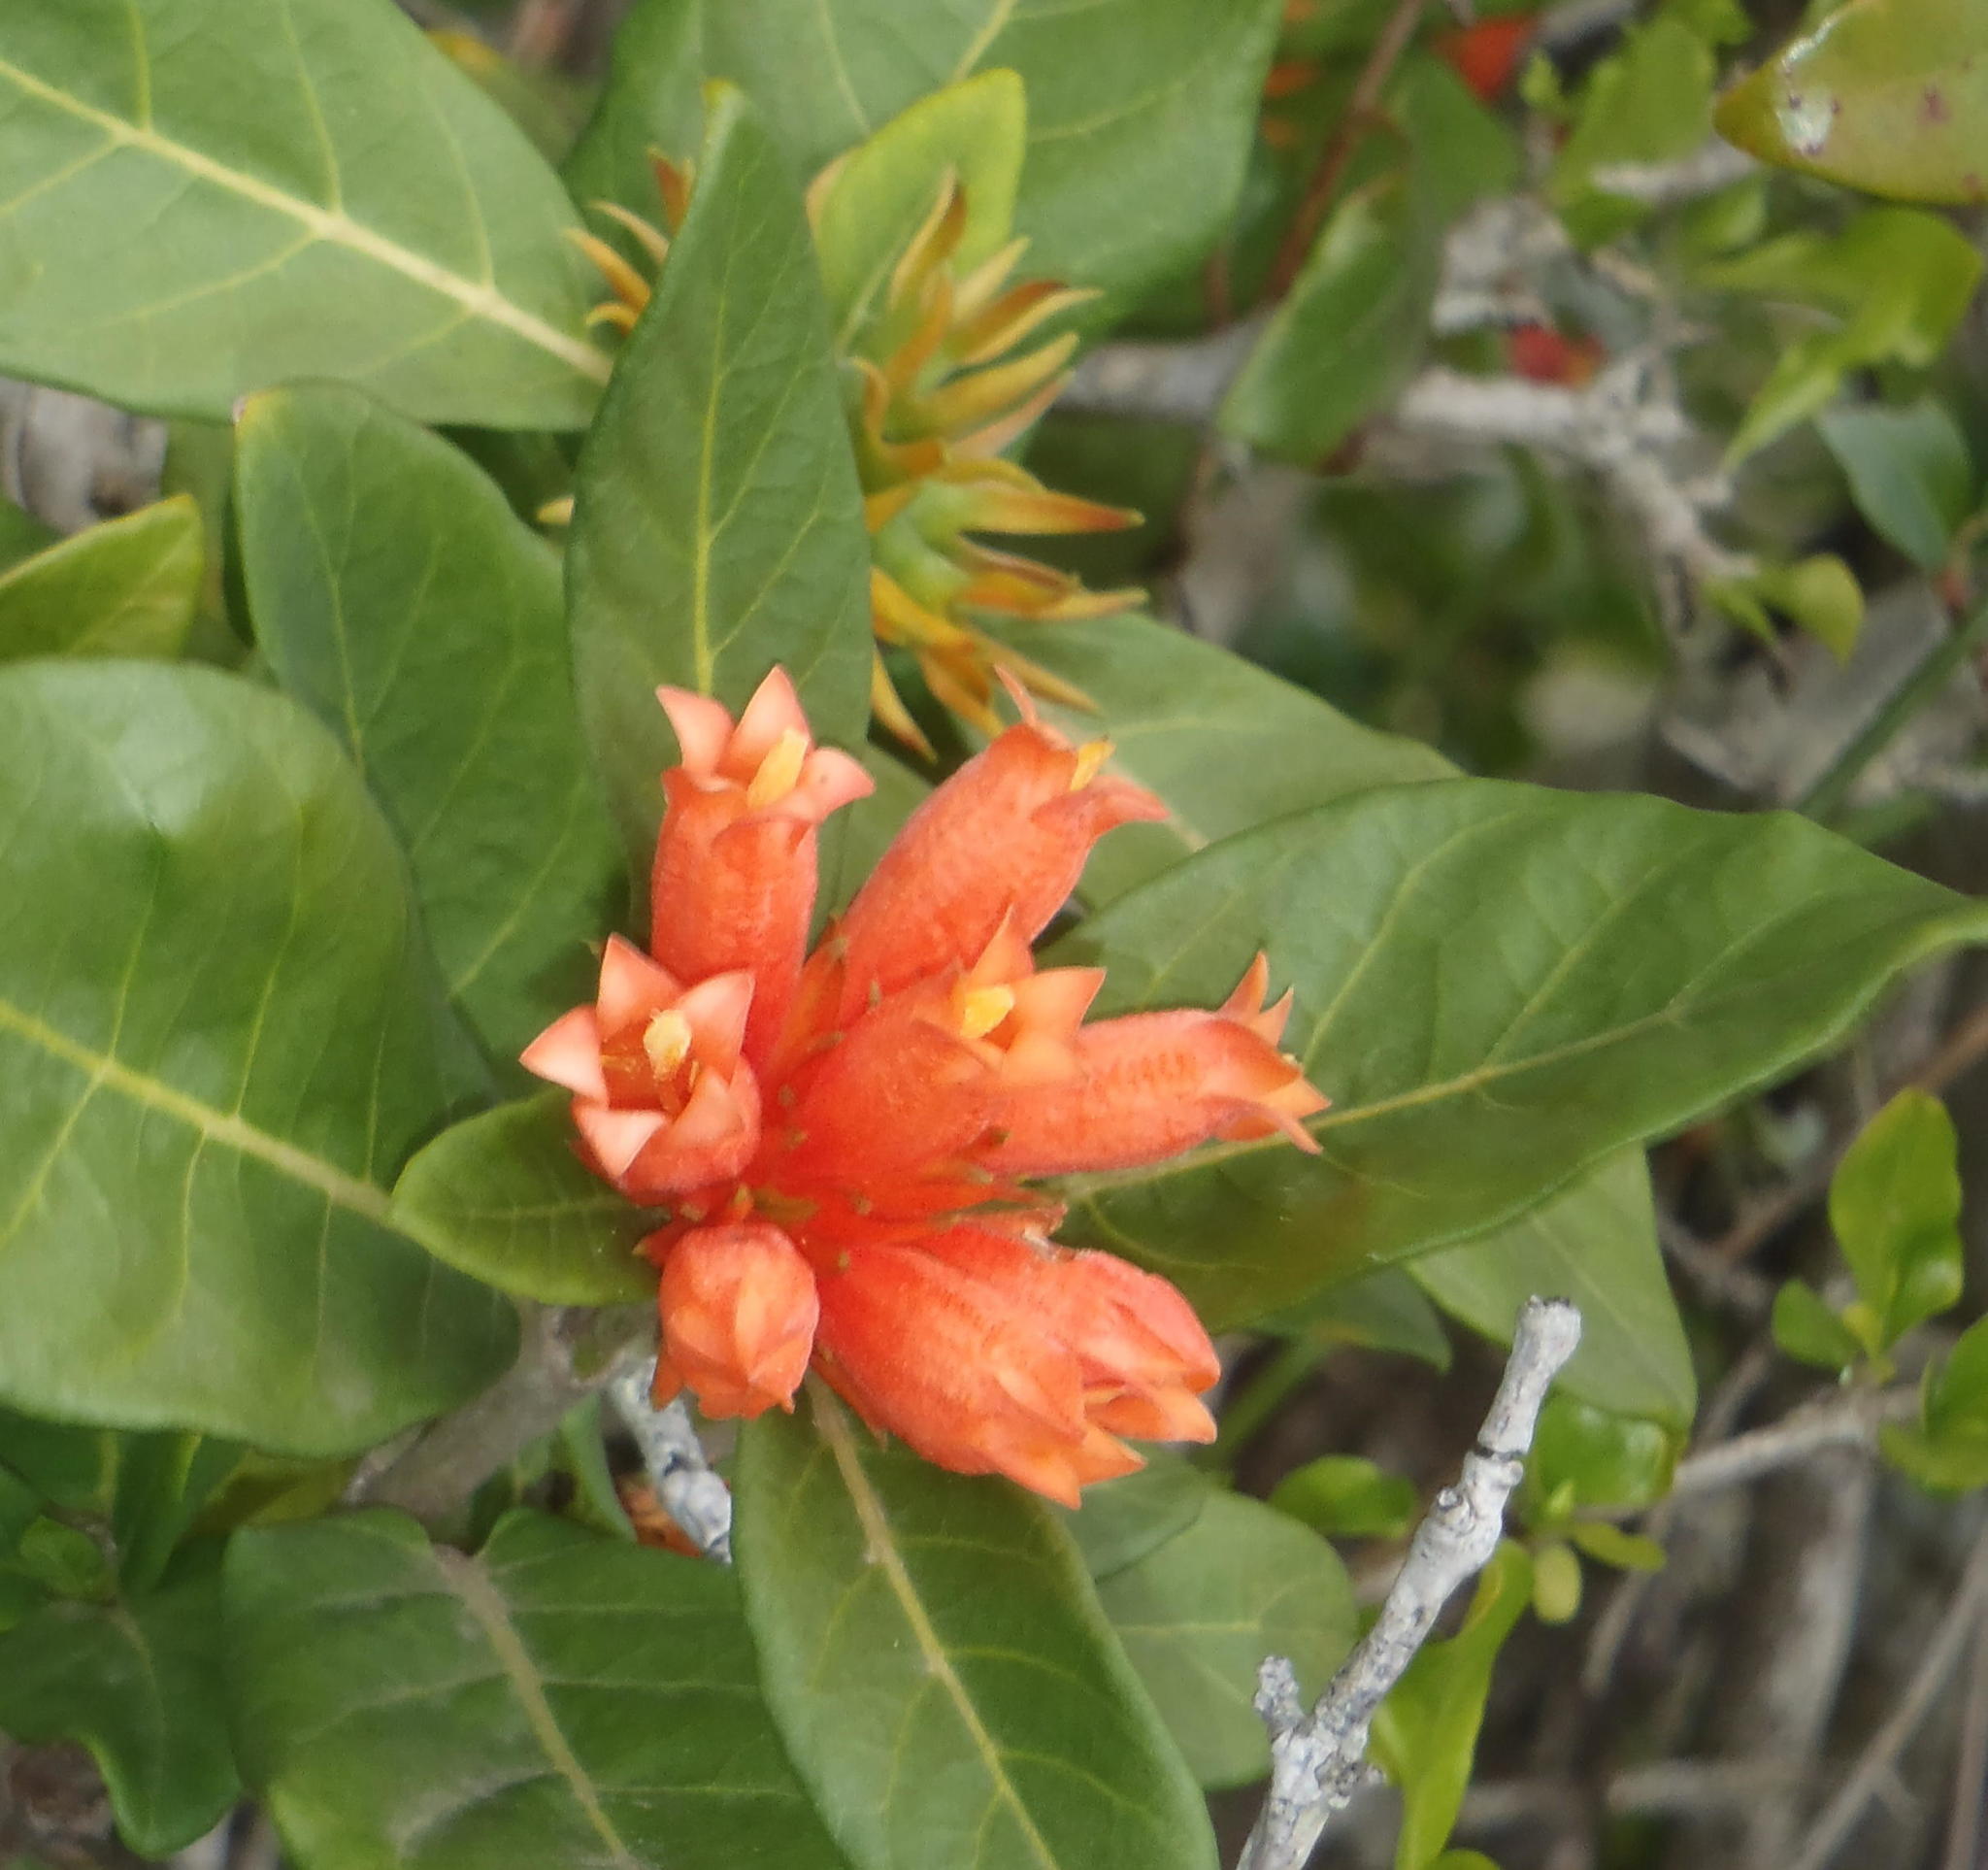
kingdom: Plantae
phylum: Tracheophyta
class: Magnoliopsida
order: Gentianales
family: Rubiaceae
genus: Burchellia
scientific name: Burchellia bubalina
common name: Wild pomegranate
